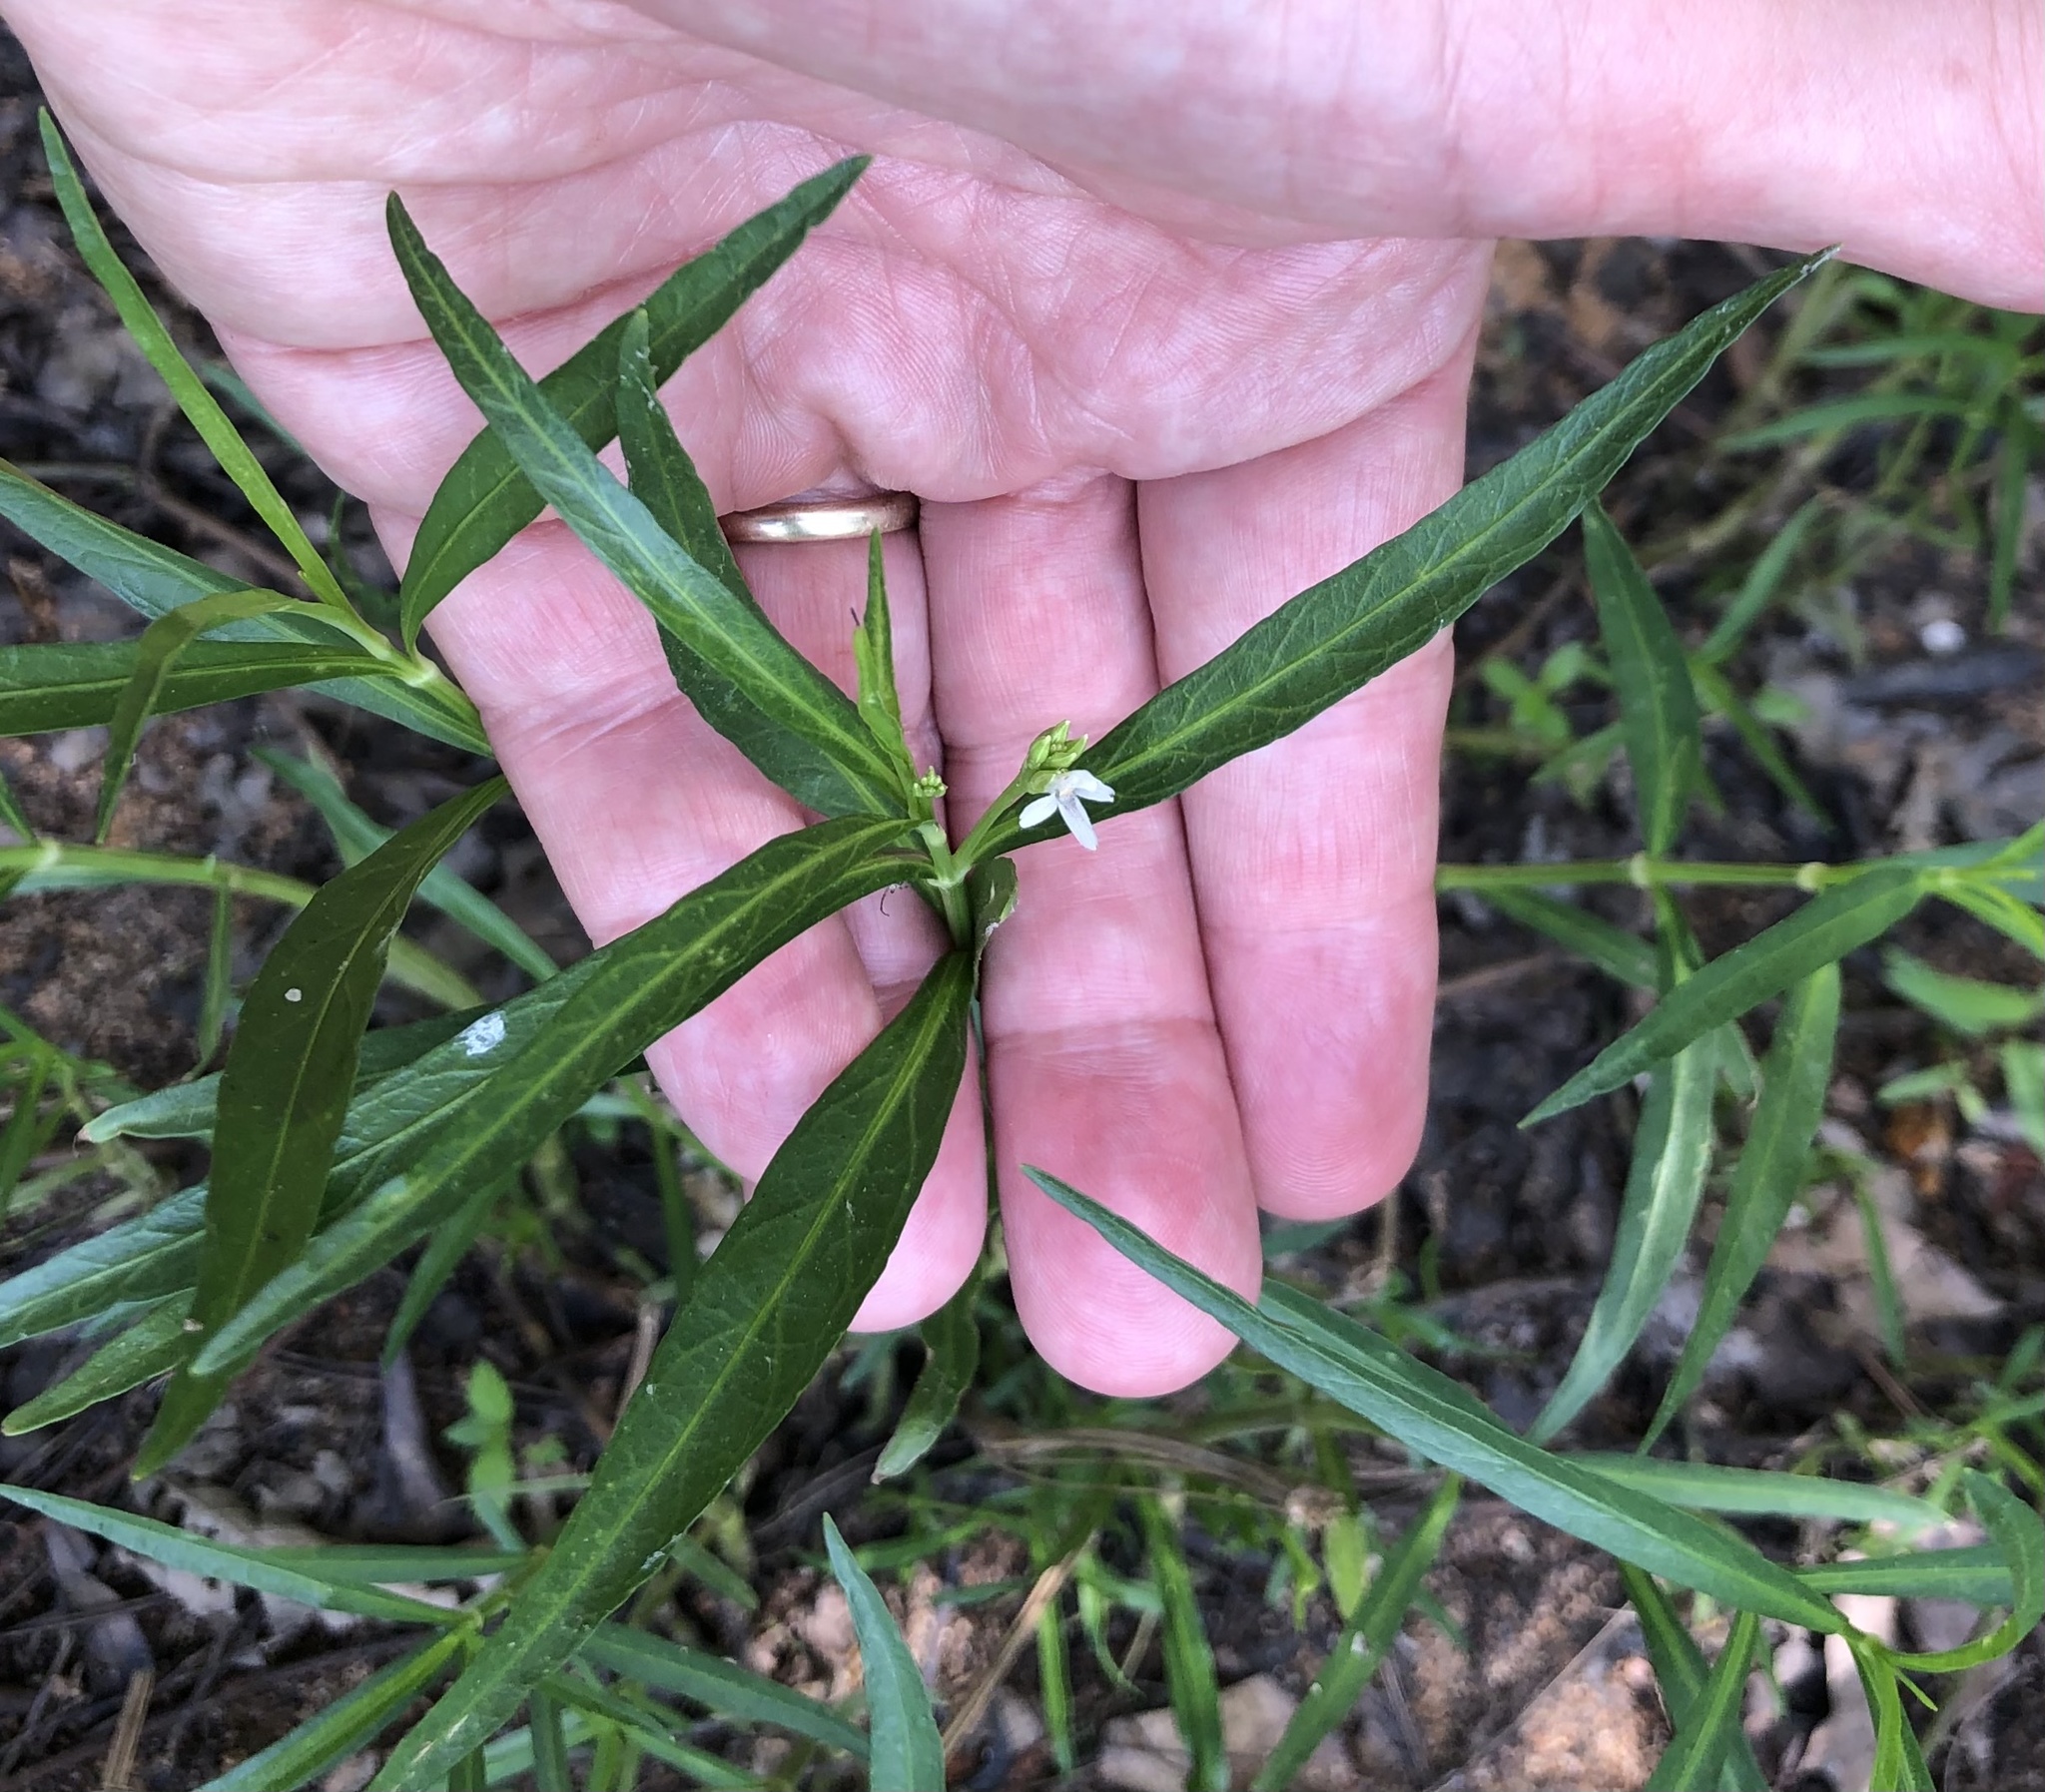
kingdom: Plantae
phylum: Tracheophyta
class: Magnoliopsida
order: Lamiales
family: Acanthaceae
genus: Dianthera
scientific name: Dianthera americana
